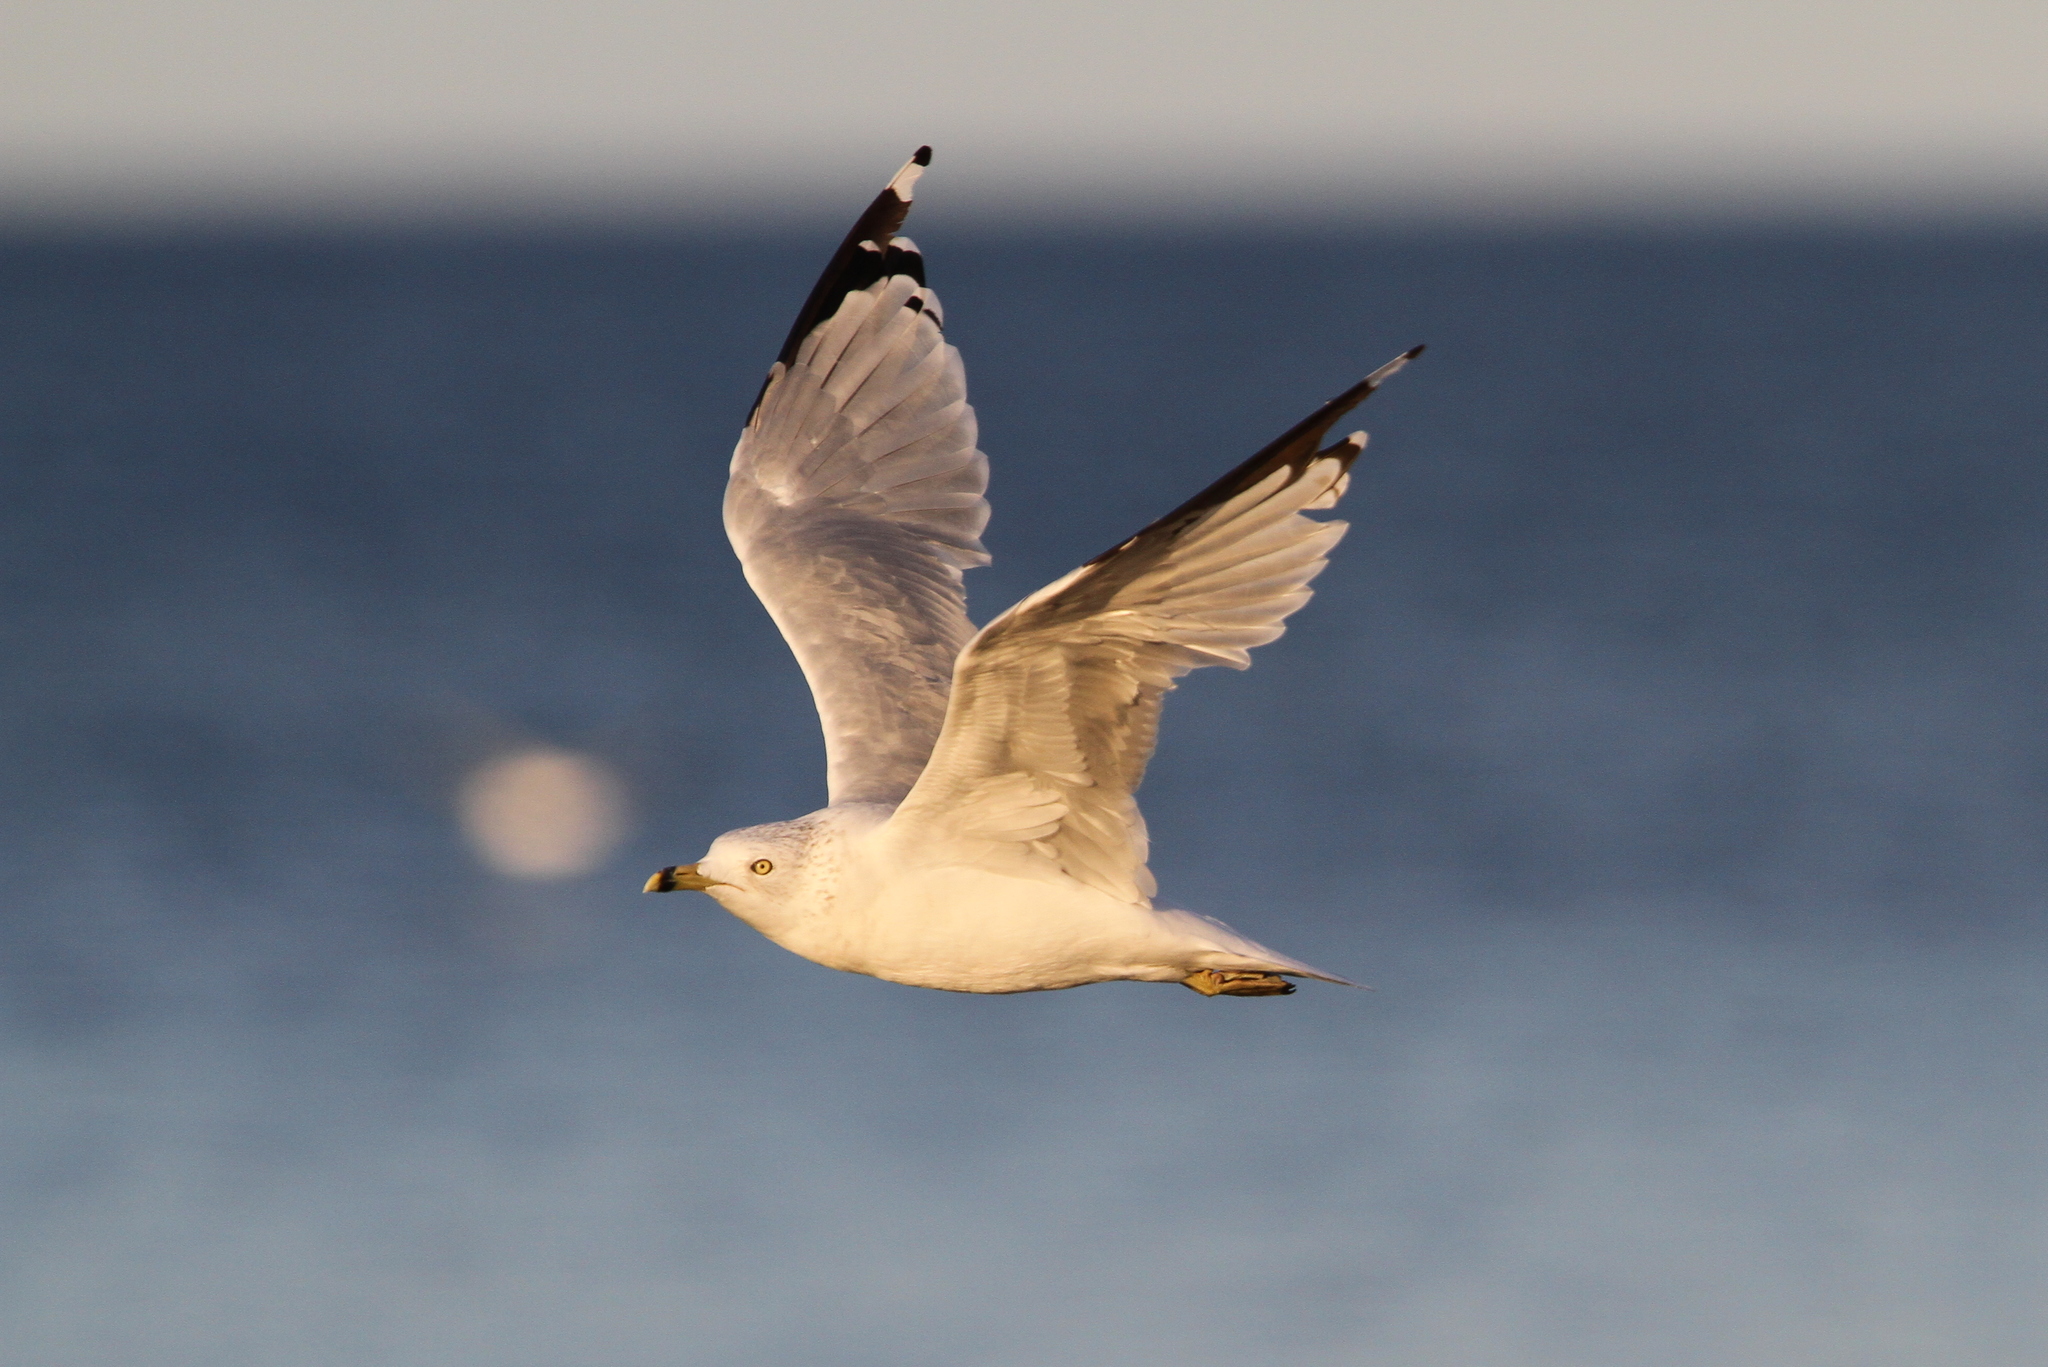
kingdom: Animalia
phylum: Chordata
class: Aves
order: Charadriiformes
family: Laridae
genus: Larus
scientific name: Larus delawarensis
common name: Ring-billed gull
